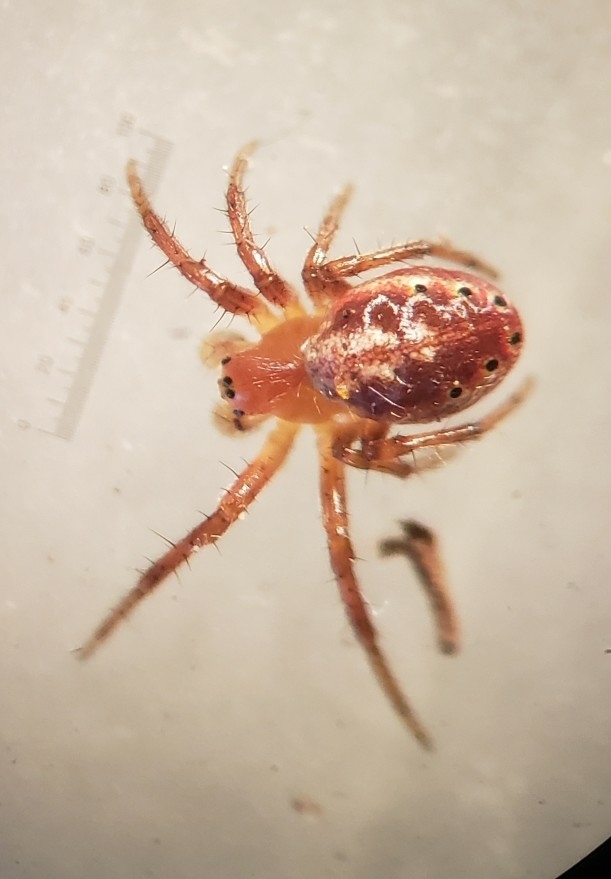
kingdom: Animalia
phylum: Arthropoda
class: Arachnida
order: Araneae
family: Araneidae
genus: Araniella
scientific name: Araniella displicata
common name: Sixspotted orb weaver
